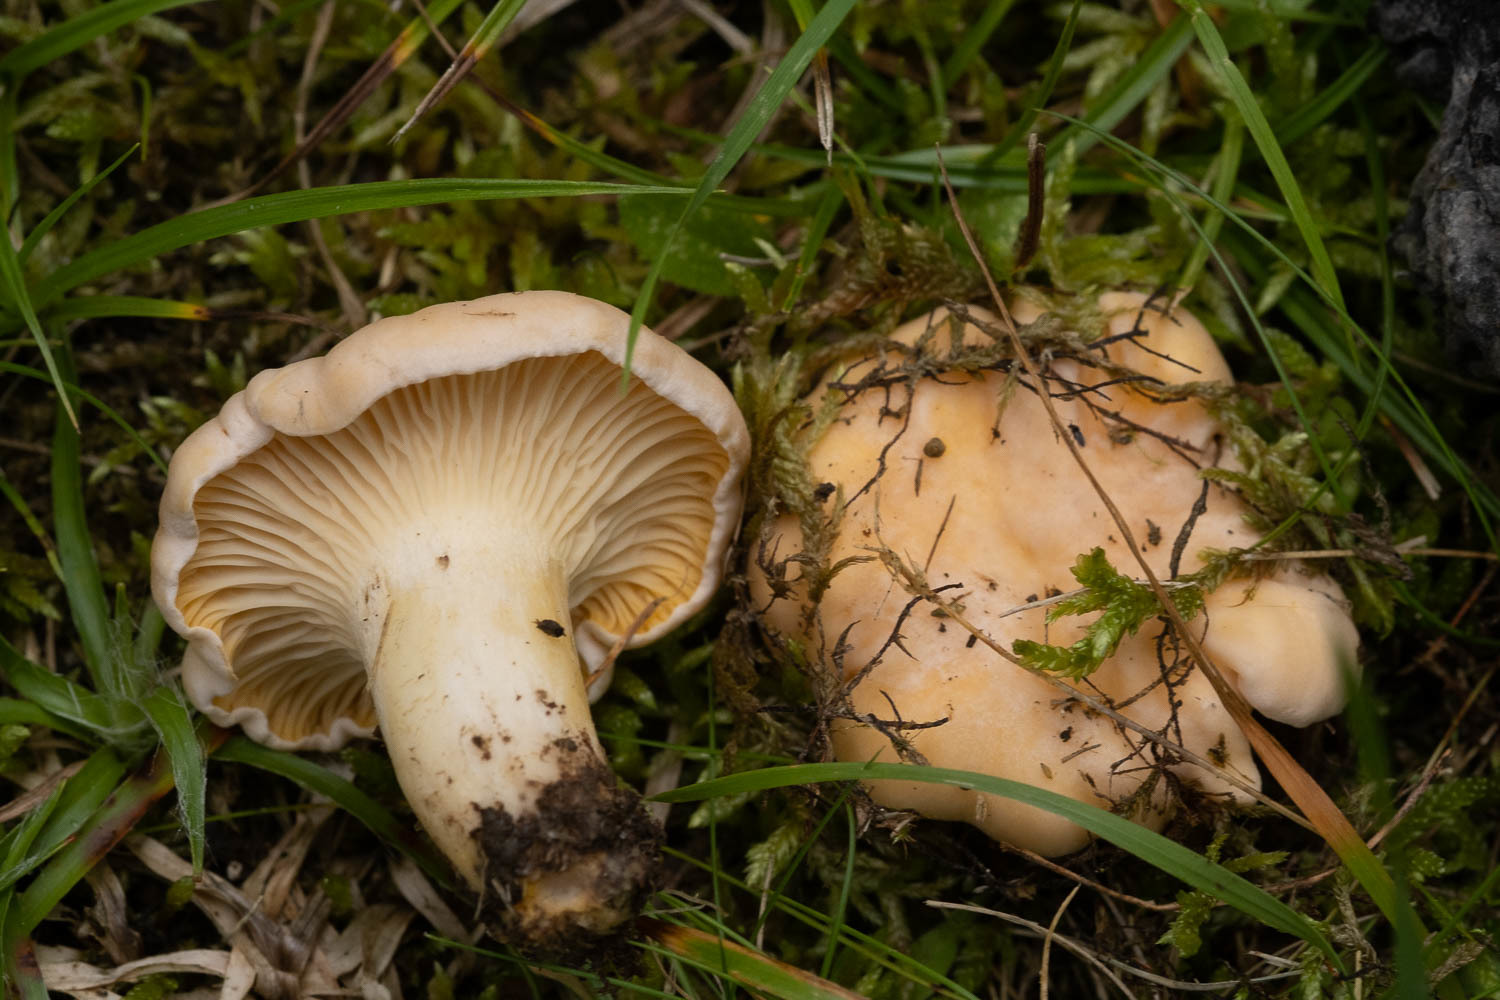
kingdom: Fungi
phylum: Basidiomycota
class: Agaricomycetes
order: Cantharellales
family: Hydnaceae
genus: Cantharellus
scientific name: Cantharellus pallens
